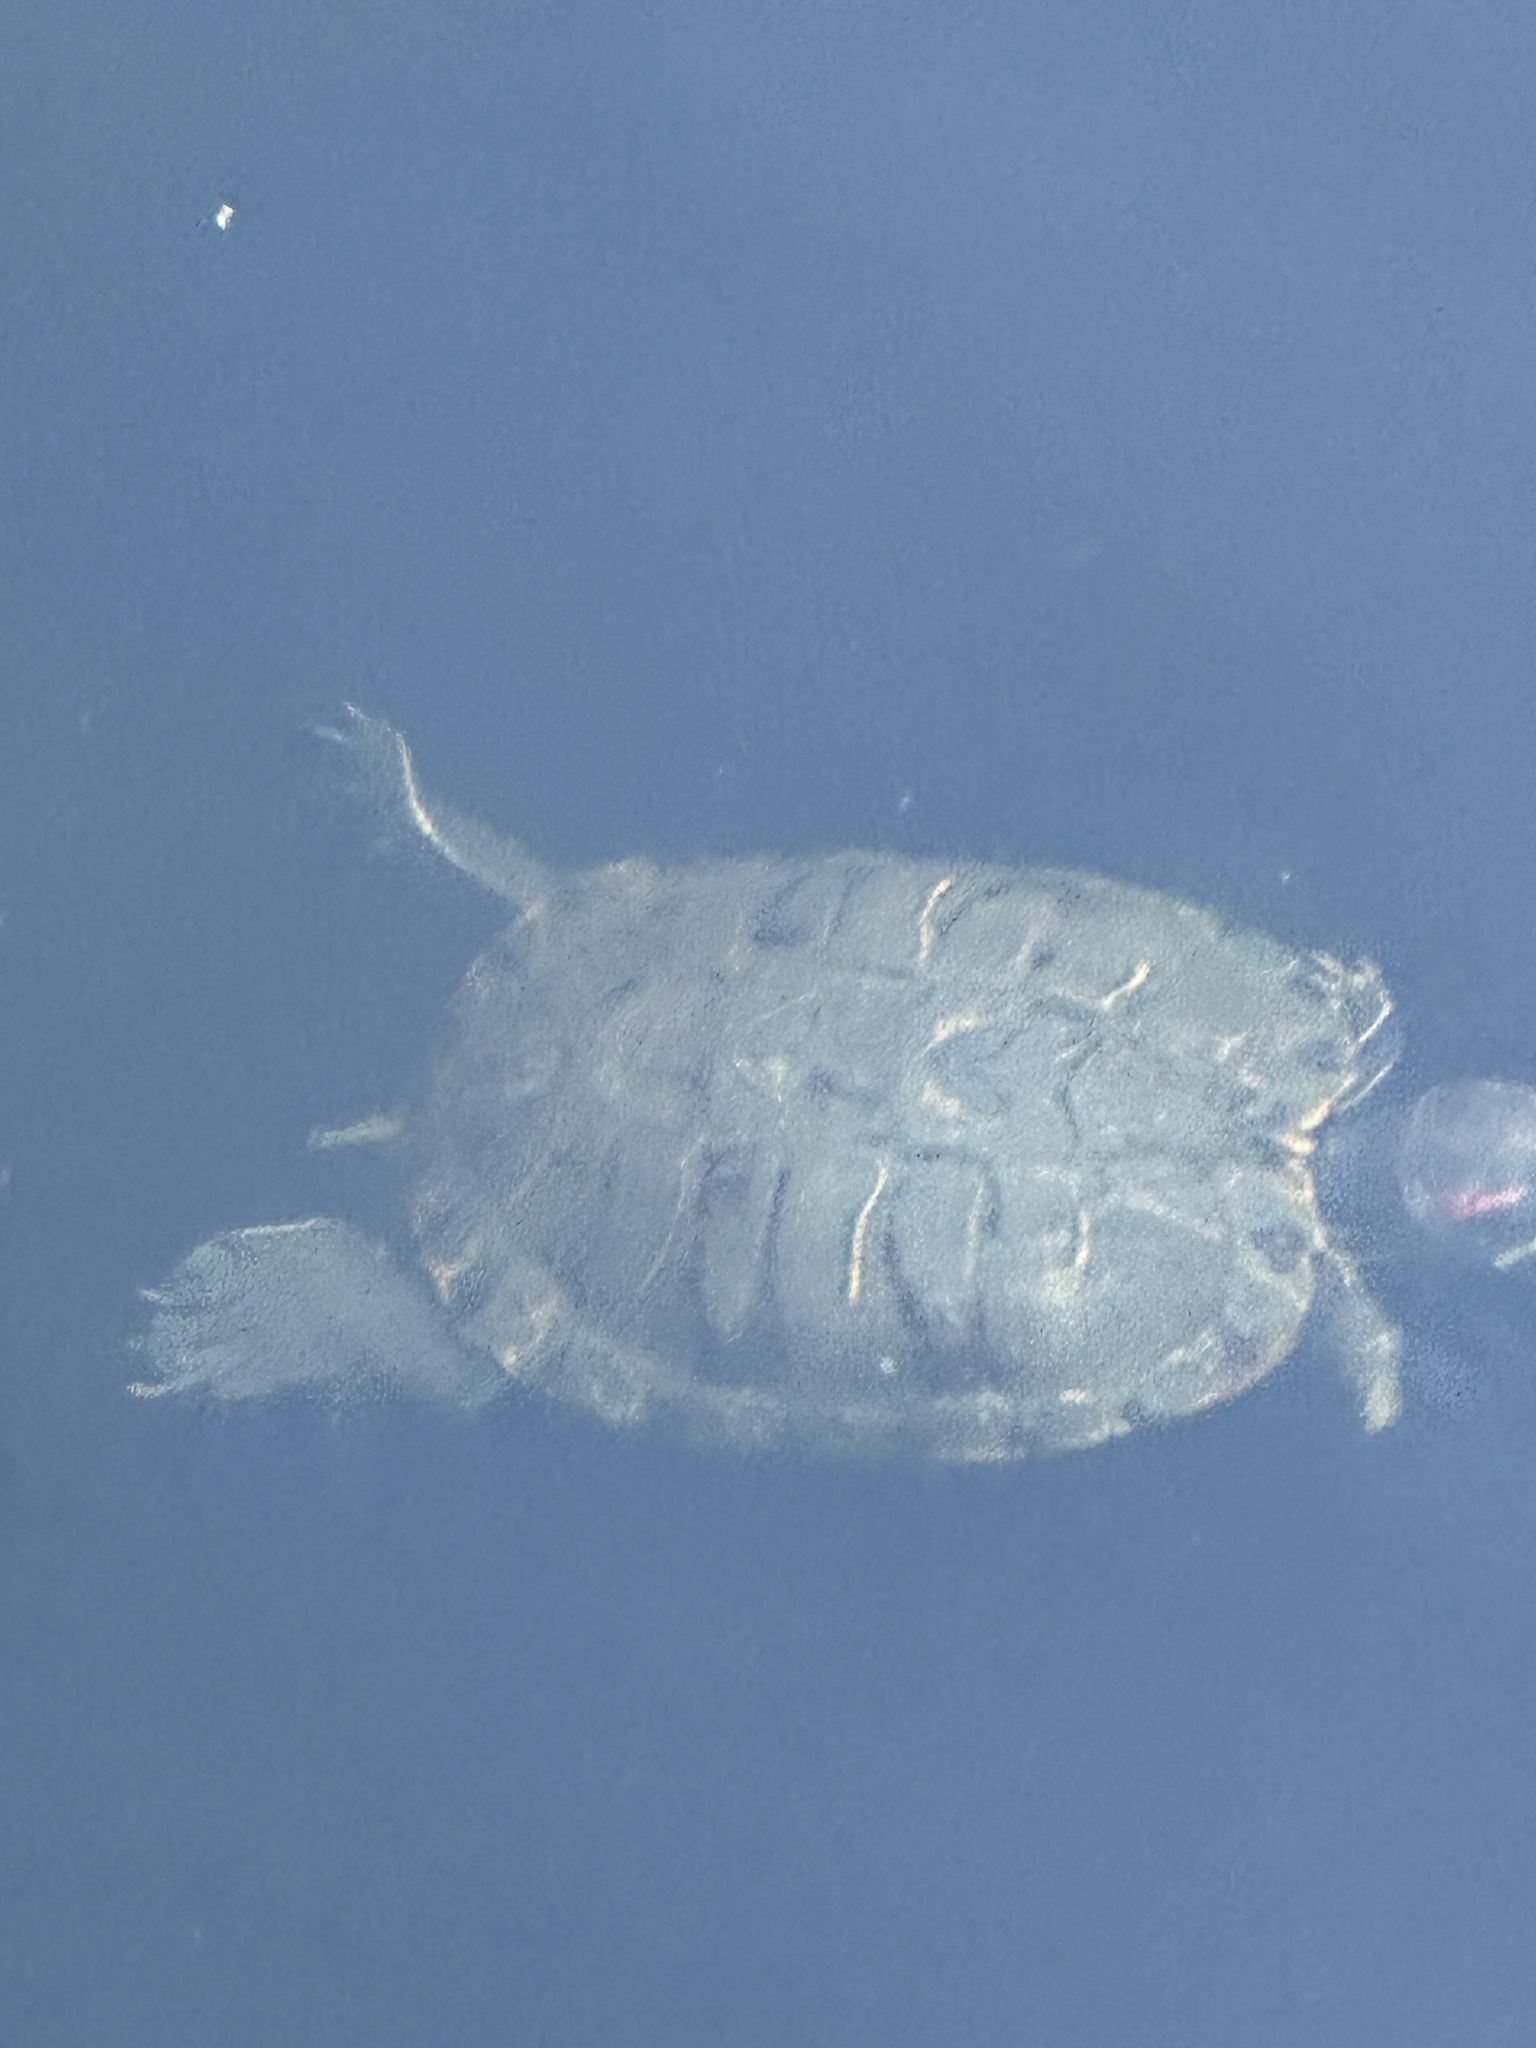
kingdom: Animalia
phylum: Chordata
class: Testudines
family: Emydidae
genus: Trachemys
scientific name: Trachemys scripta
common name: Slider
